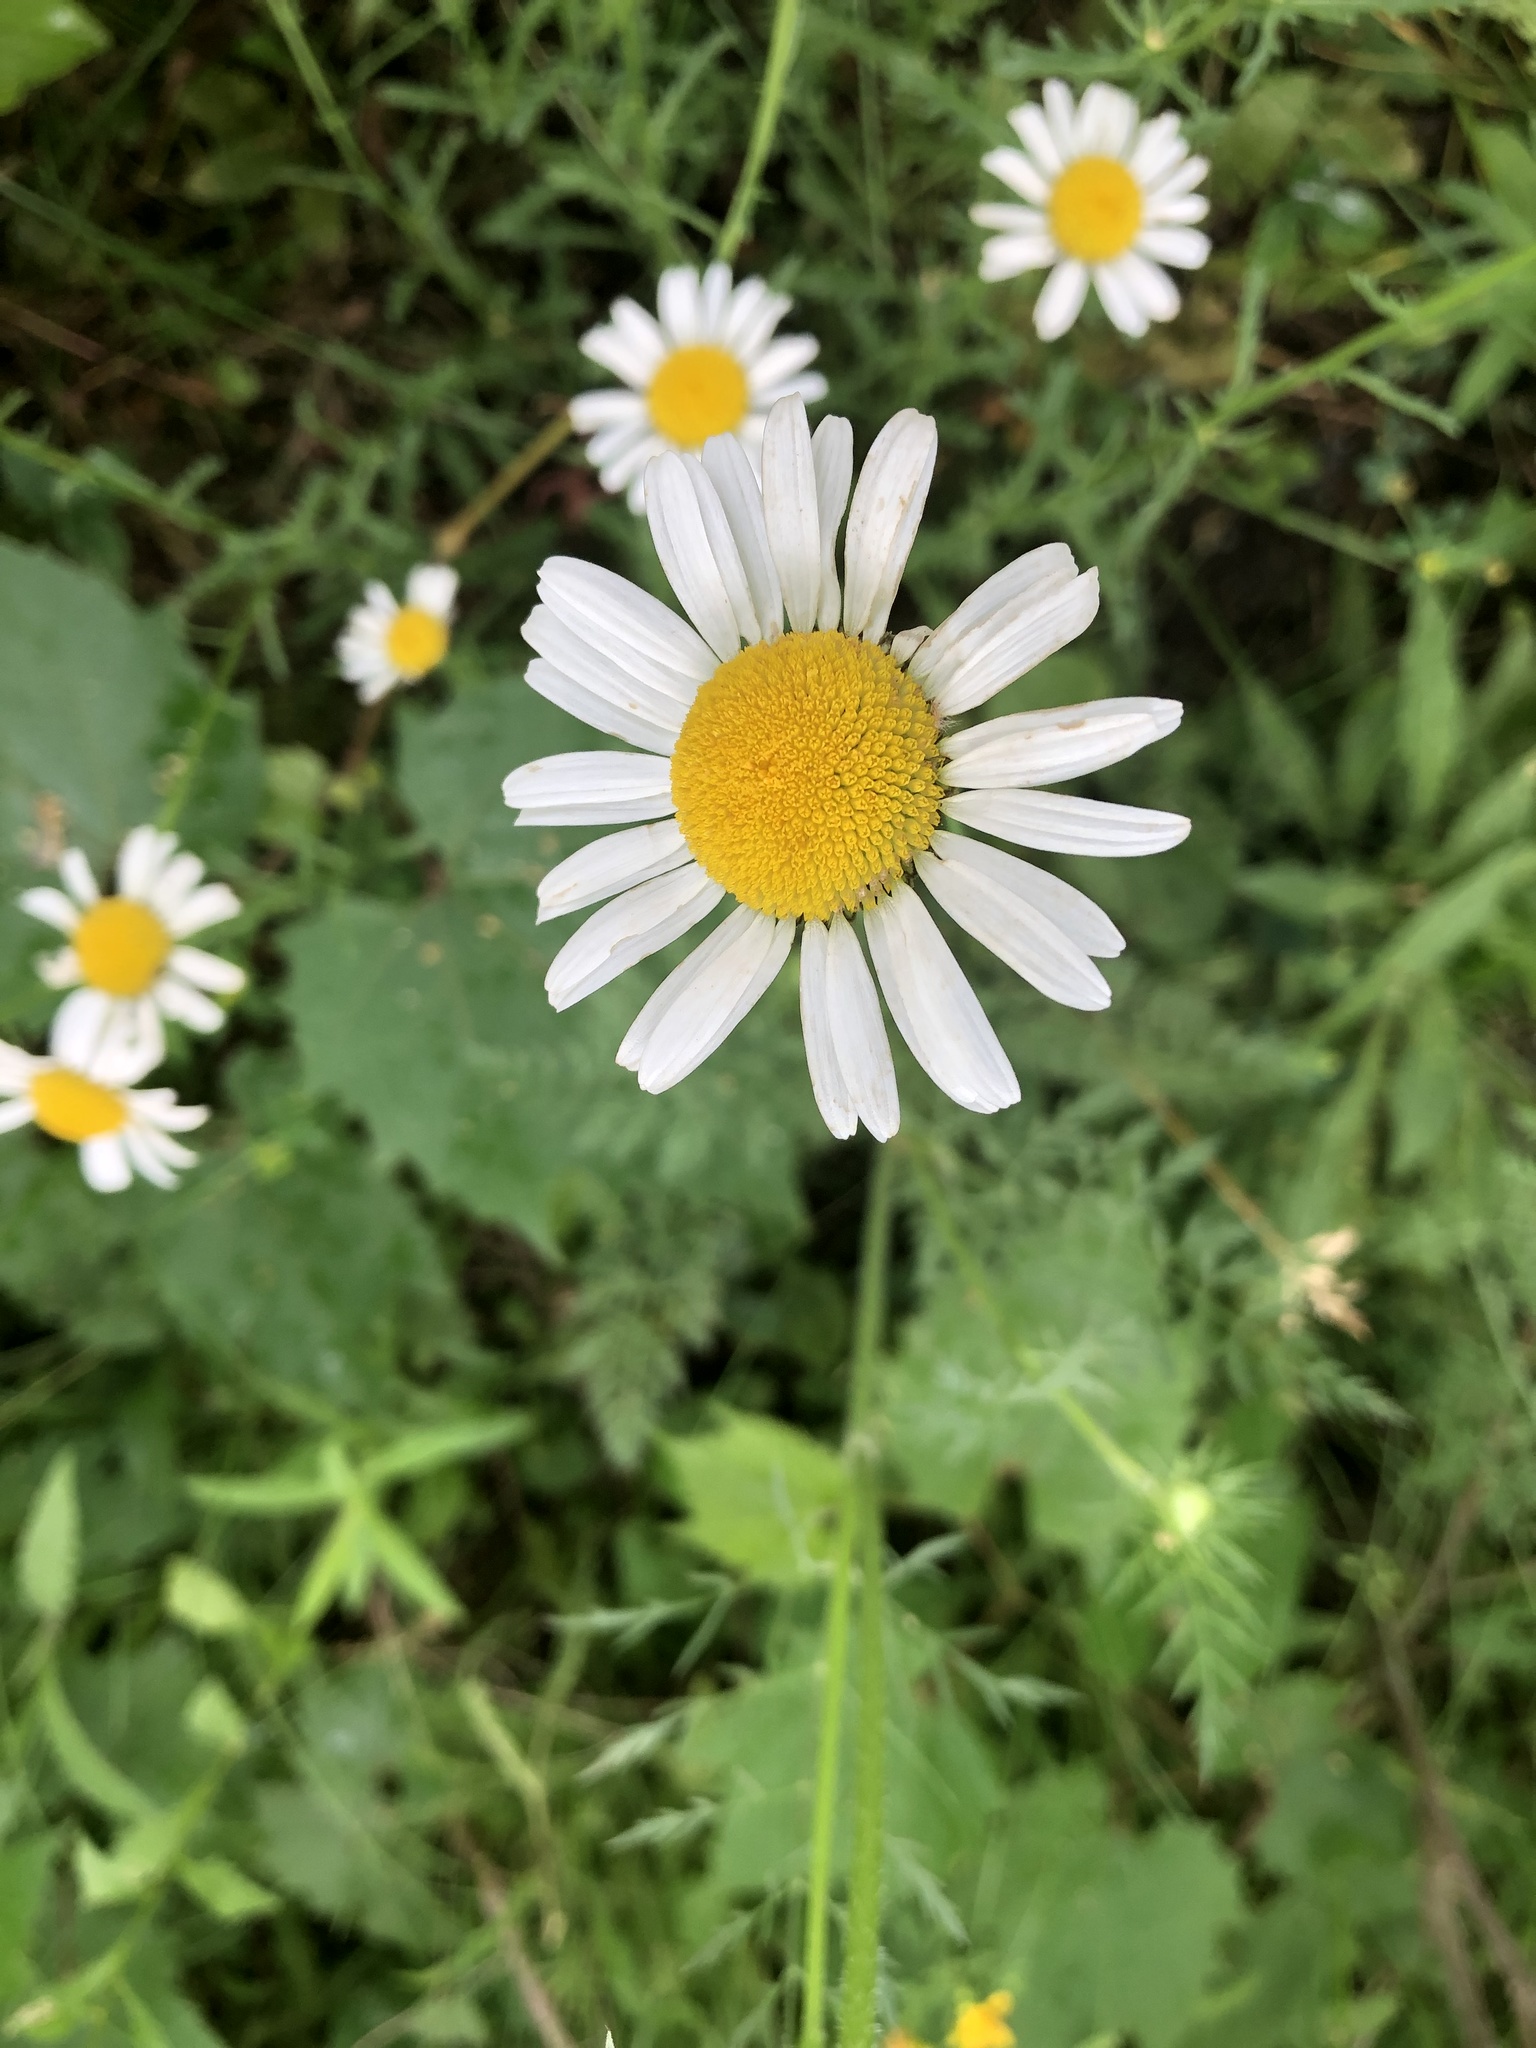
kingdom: Plantae
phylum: Tracheophyta
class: Magnoliopsida
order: Asterales
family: Asteraceae
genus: Leucanthemum
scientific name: Leucanthemum vulgare
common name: Oxeye daisy
